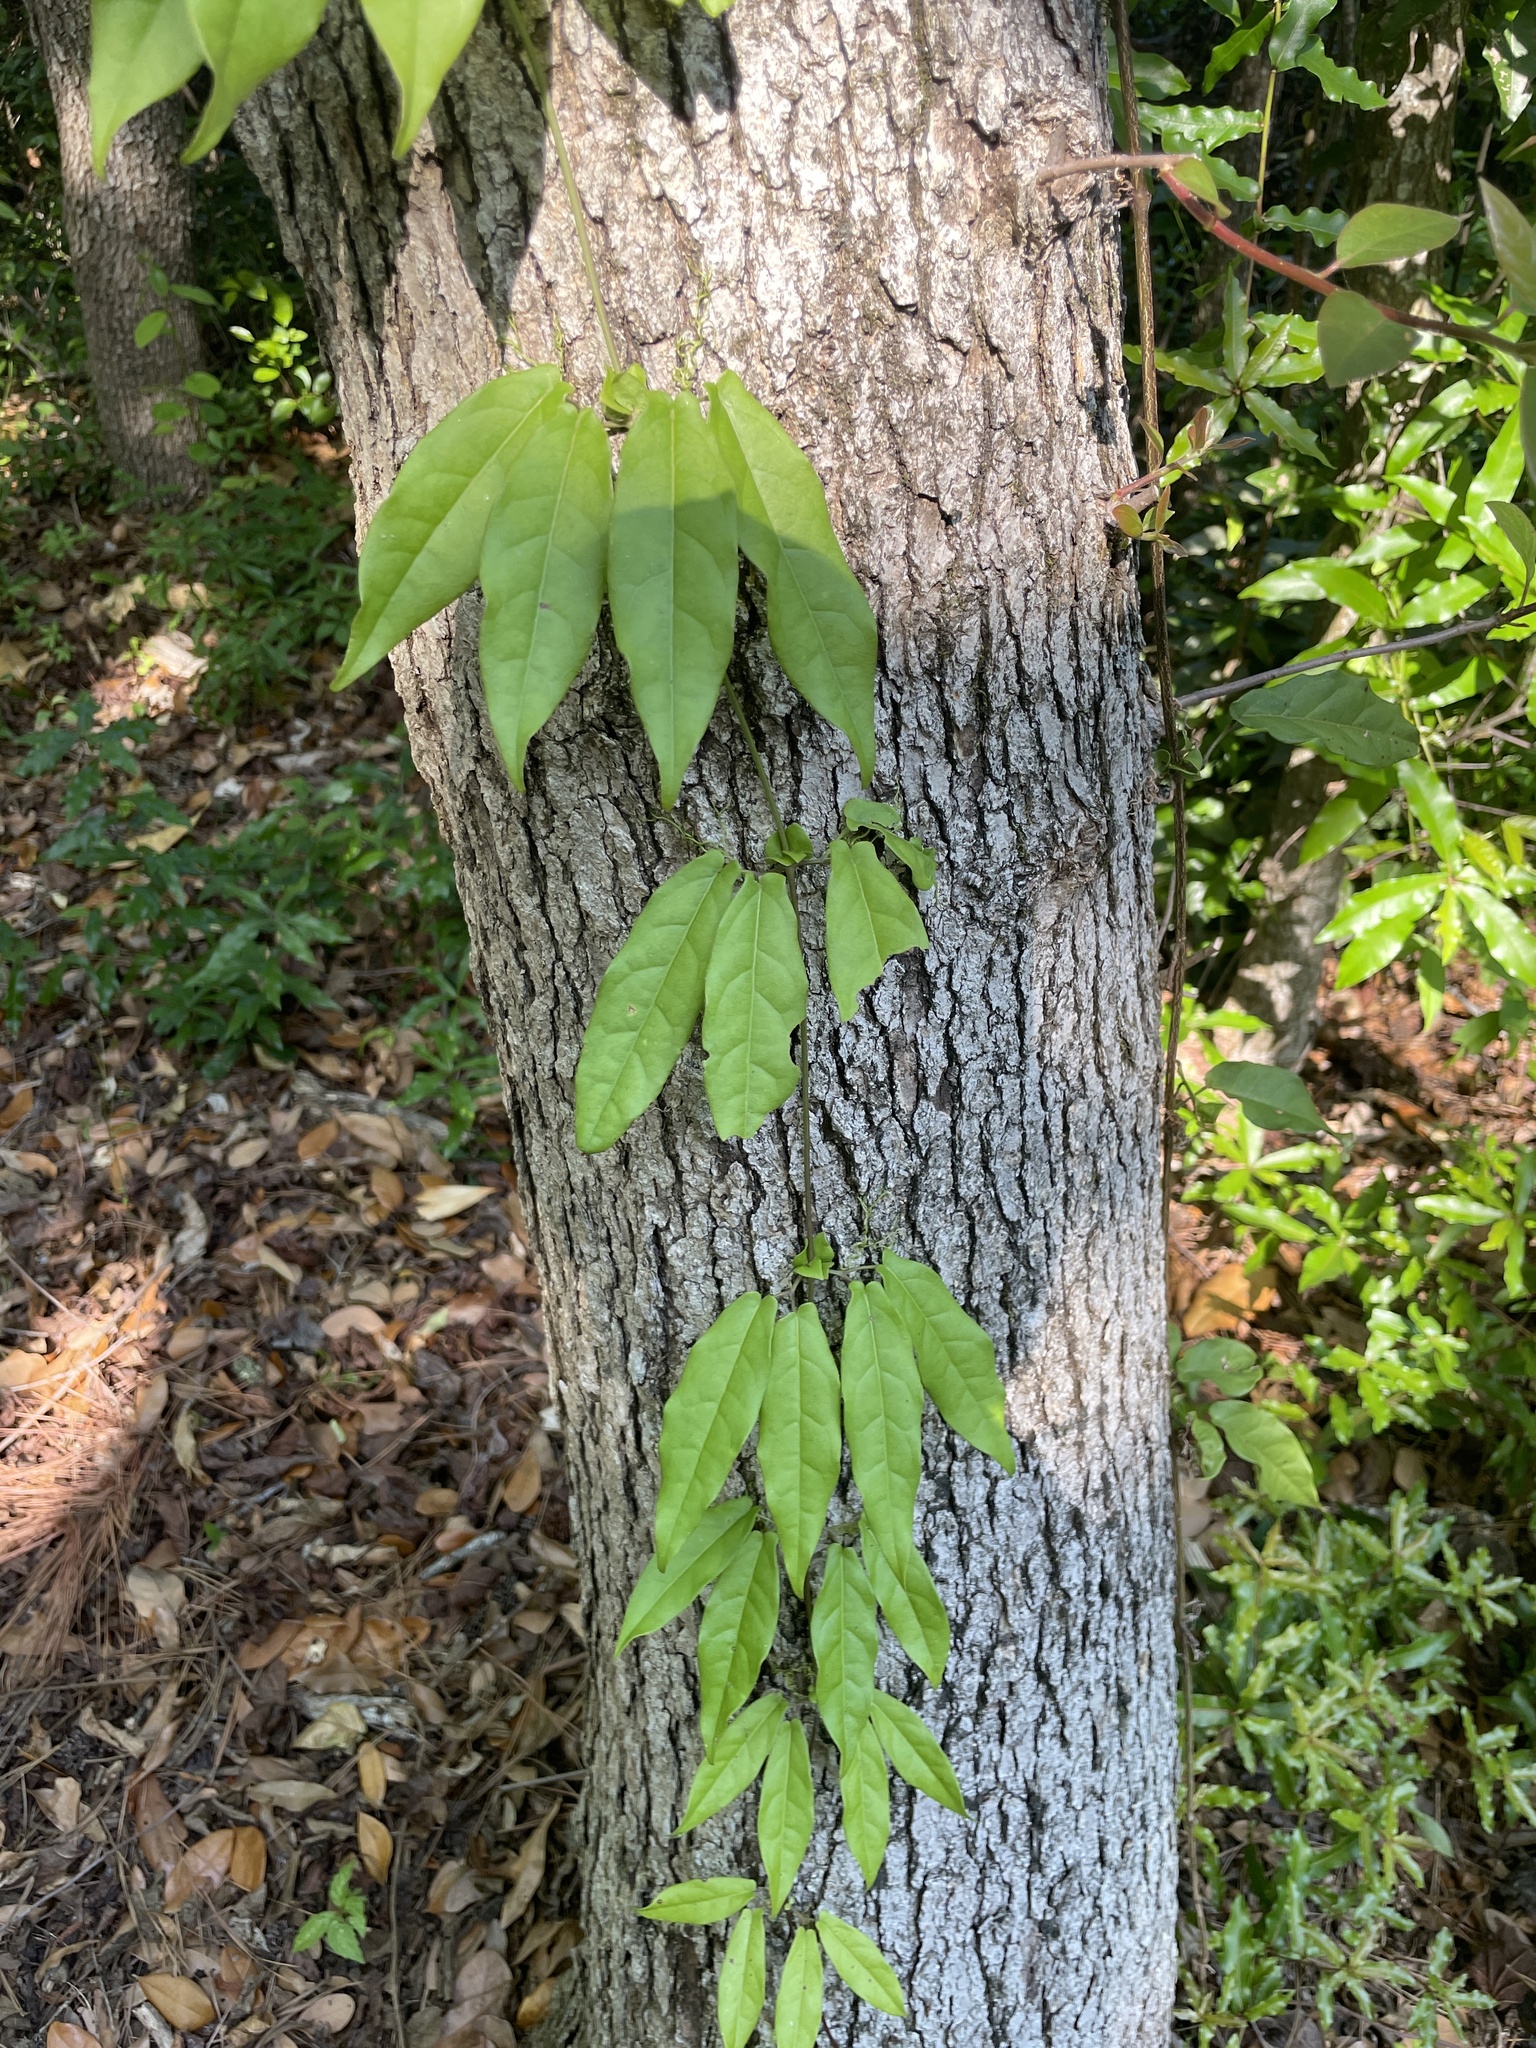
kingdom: Plantae
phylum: Tracheophyta
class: Magnoliopsida
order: Lamiales
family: Bignoniaceae
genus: Bignonia
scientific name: Bignonia capreolata
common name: Crossvine
